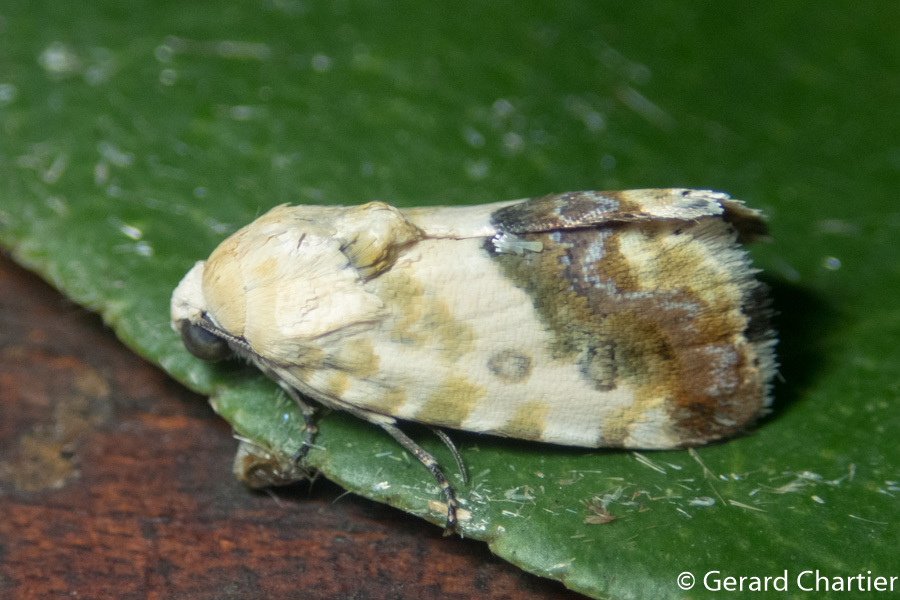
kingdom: Animalia
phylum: Arthropoda
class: Insecta
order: Lepidoptera
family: Noctuidae
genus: Acontia
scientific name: Acontia marmoralis
